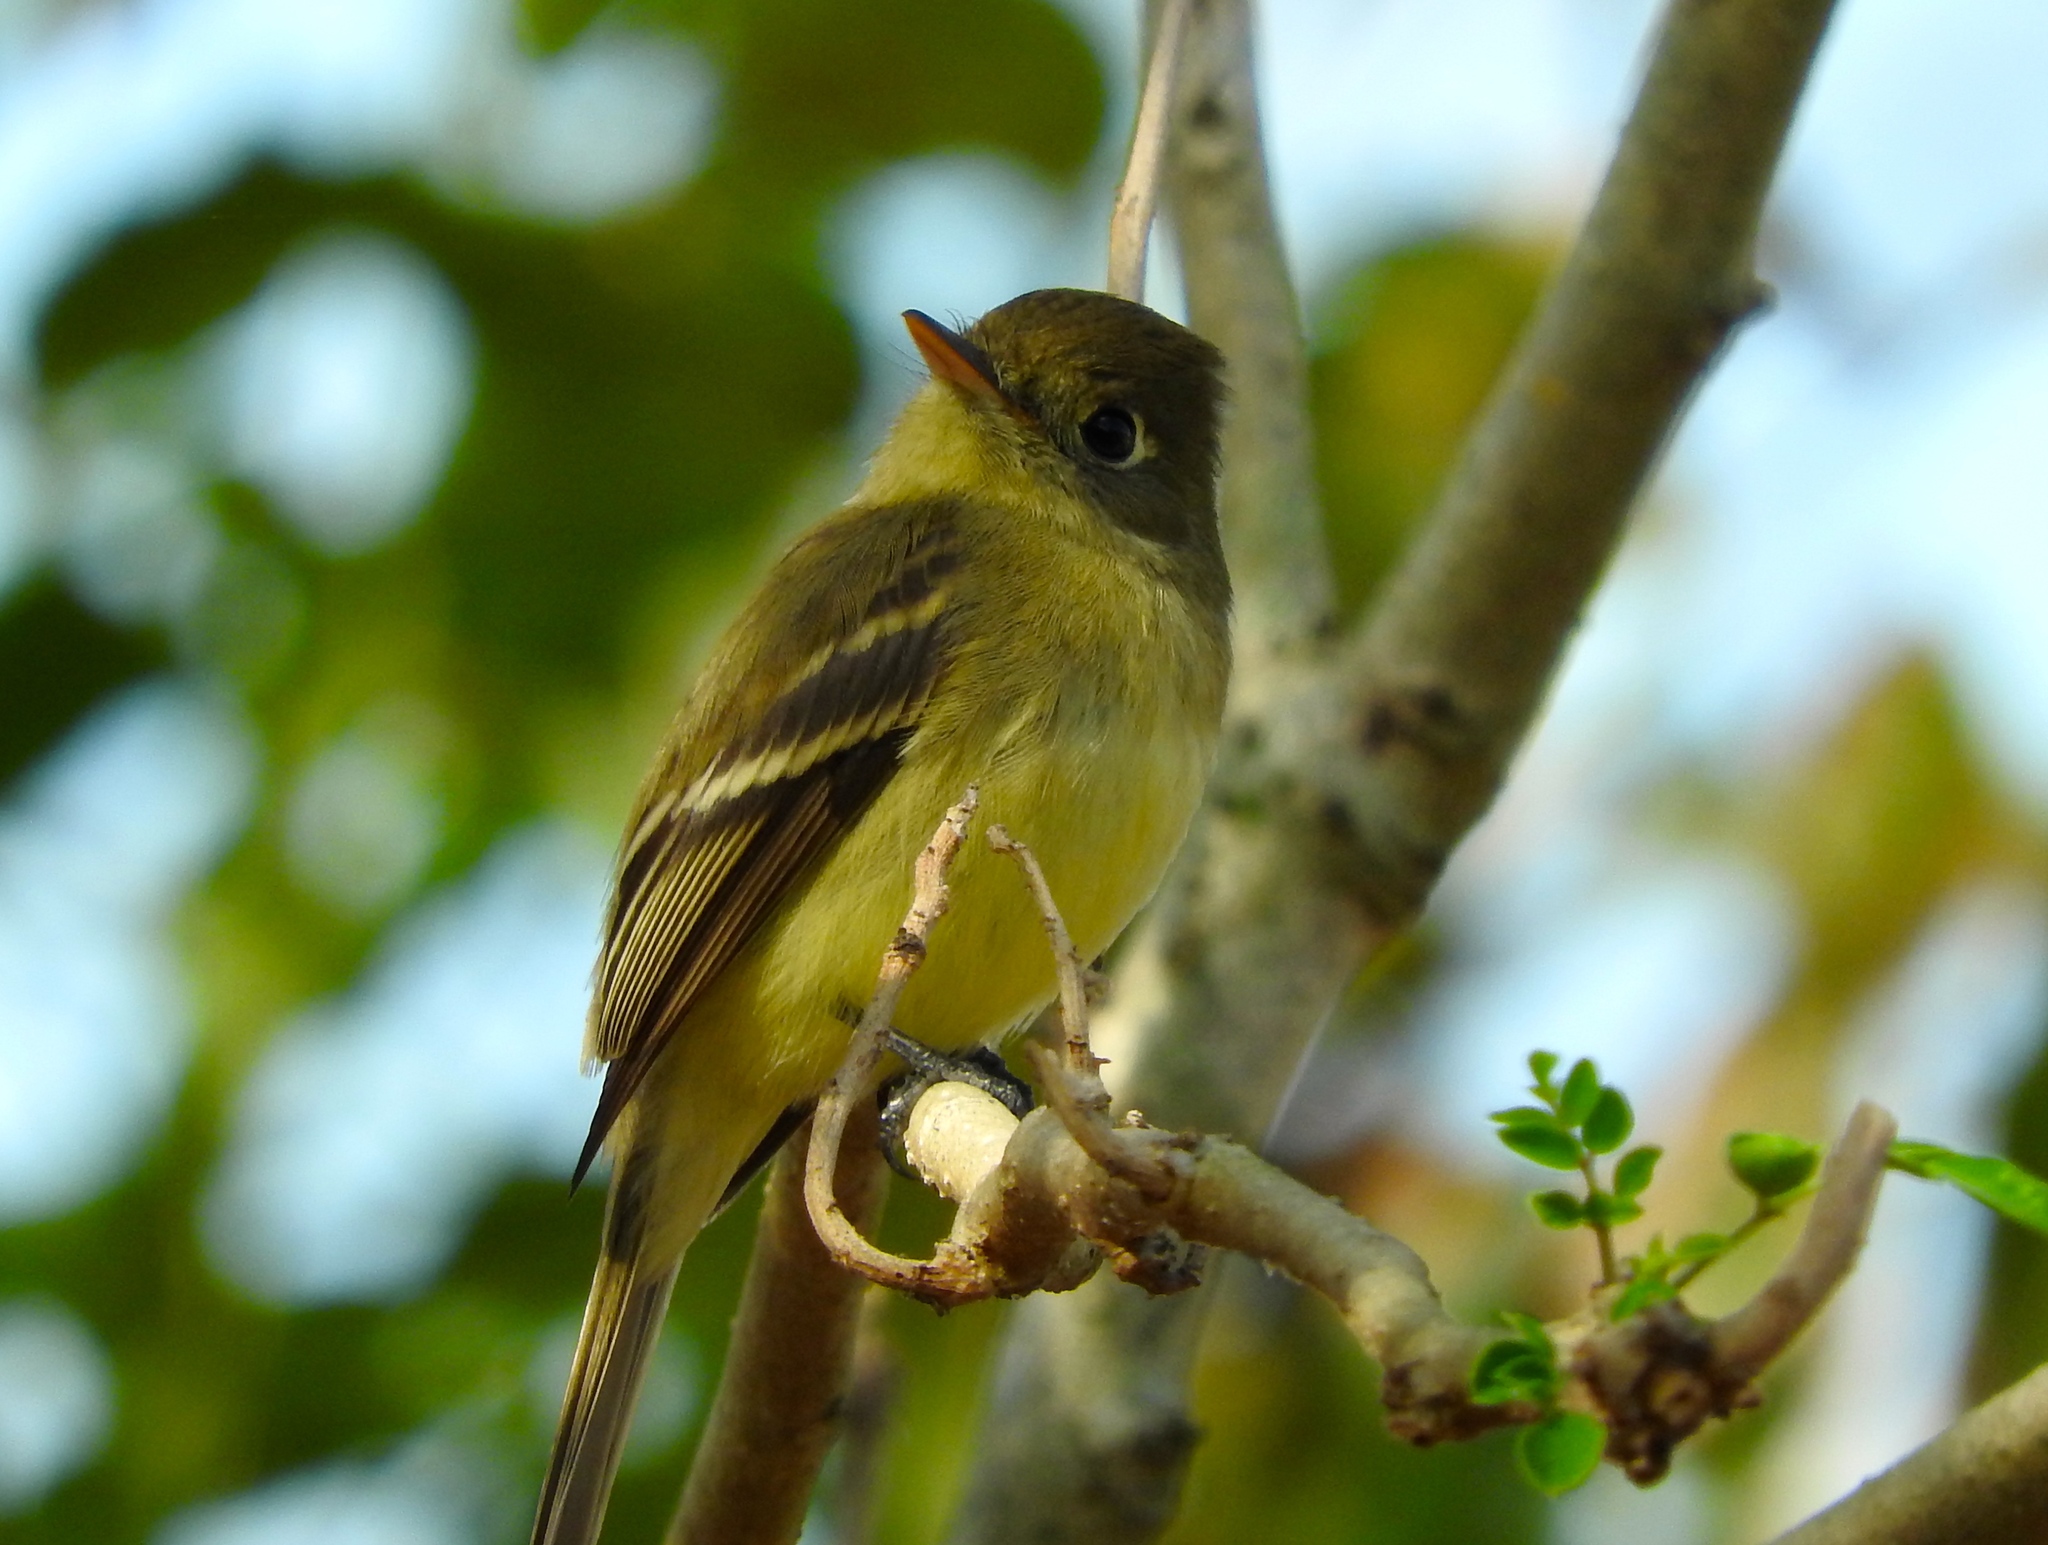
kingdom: Animalia
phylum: Chordata
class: Aves
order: Passeriformes
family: Tyrannidae
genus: Empidonax
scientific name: Empidonax
